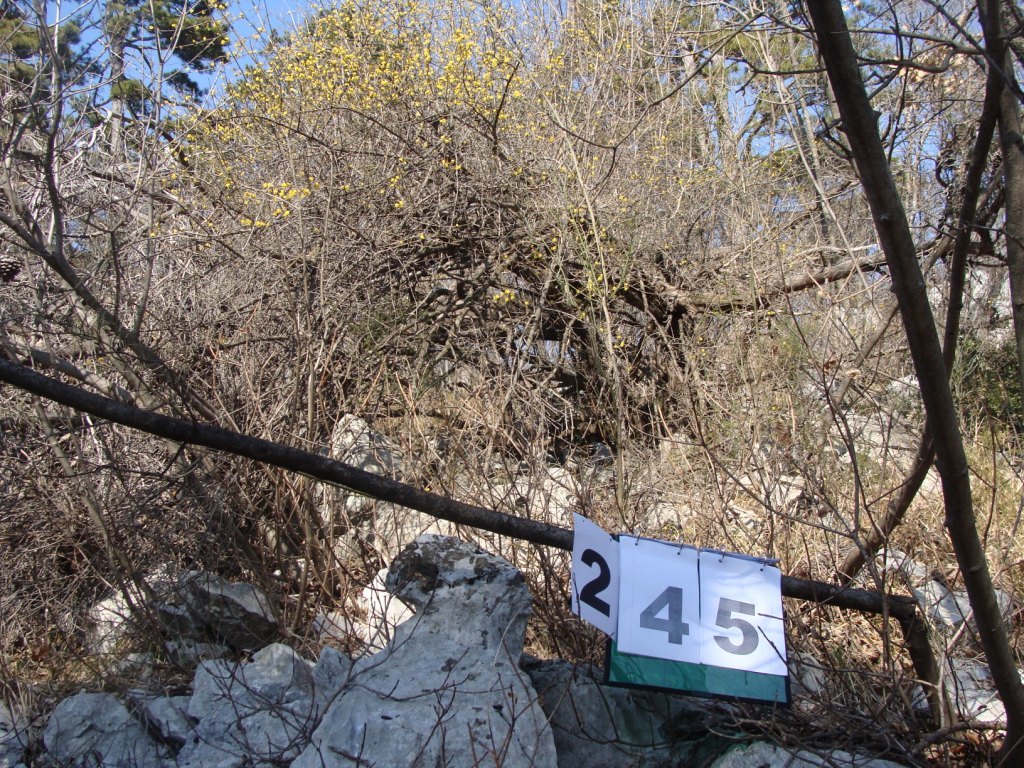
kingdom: Plantae
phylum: Tracheophyta
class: Magnoliopsida
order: Cornales
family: Cornaceae
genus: Cornus
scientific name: Cornus mas
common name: Cornelian-cherry
